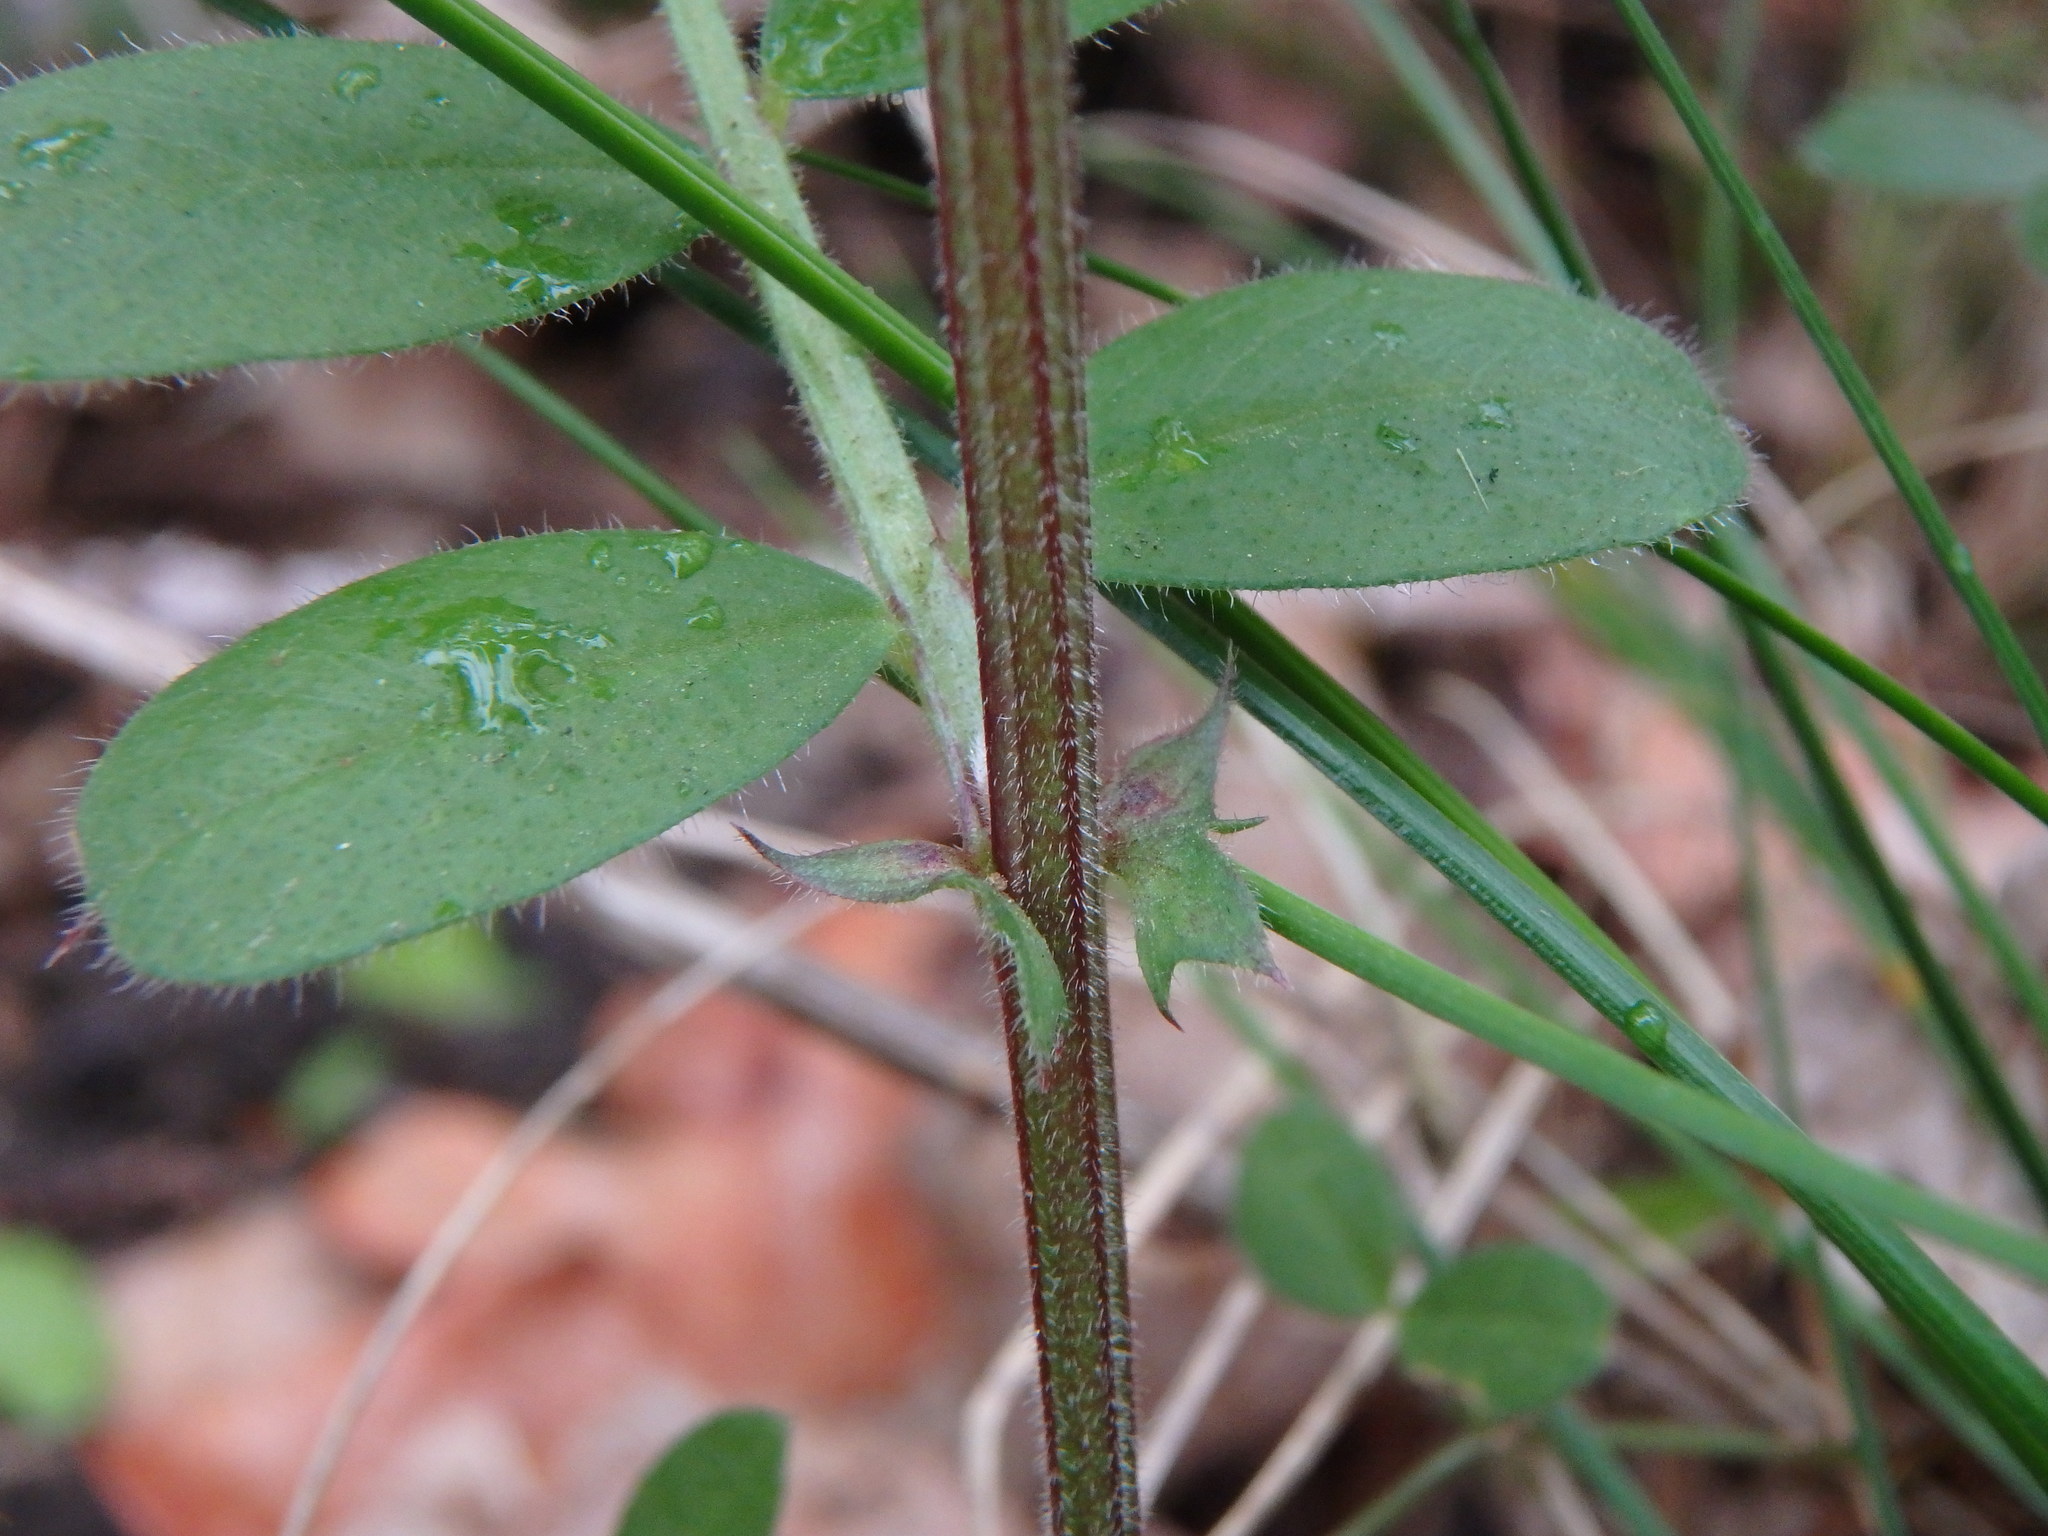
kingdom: Plantae
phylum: Tracheophyta
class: Magnoliopsida
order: Fabales
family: Fabaceae
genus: Vicia
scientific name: Vicia sativa
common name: Garden vetch
